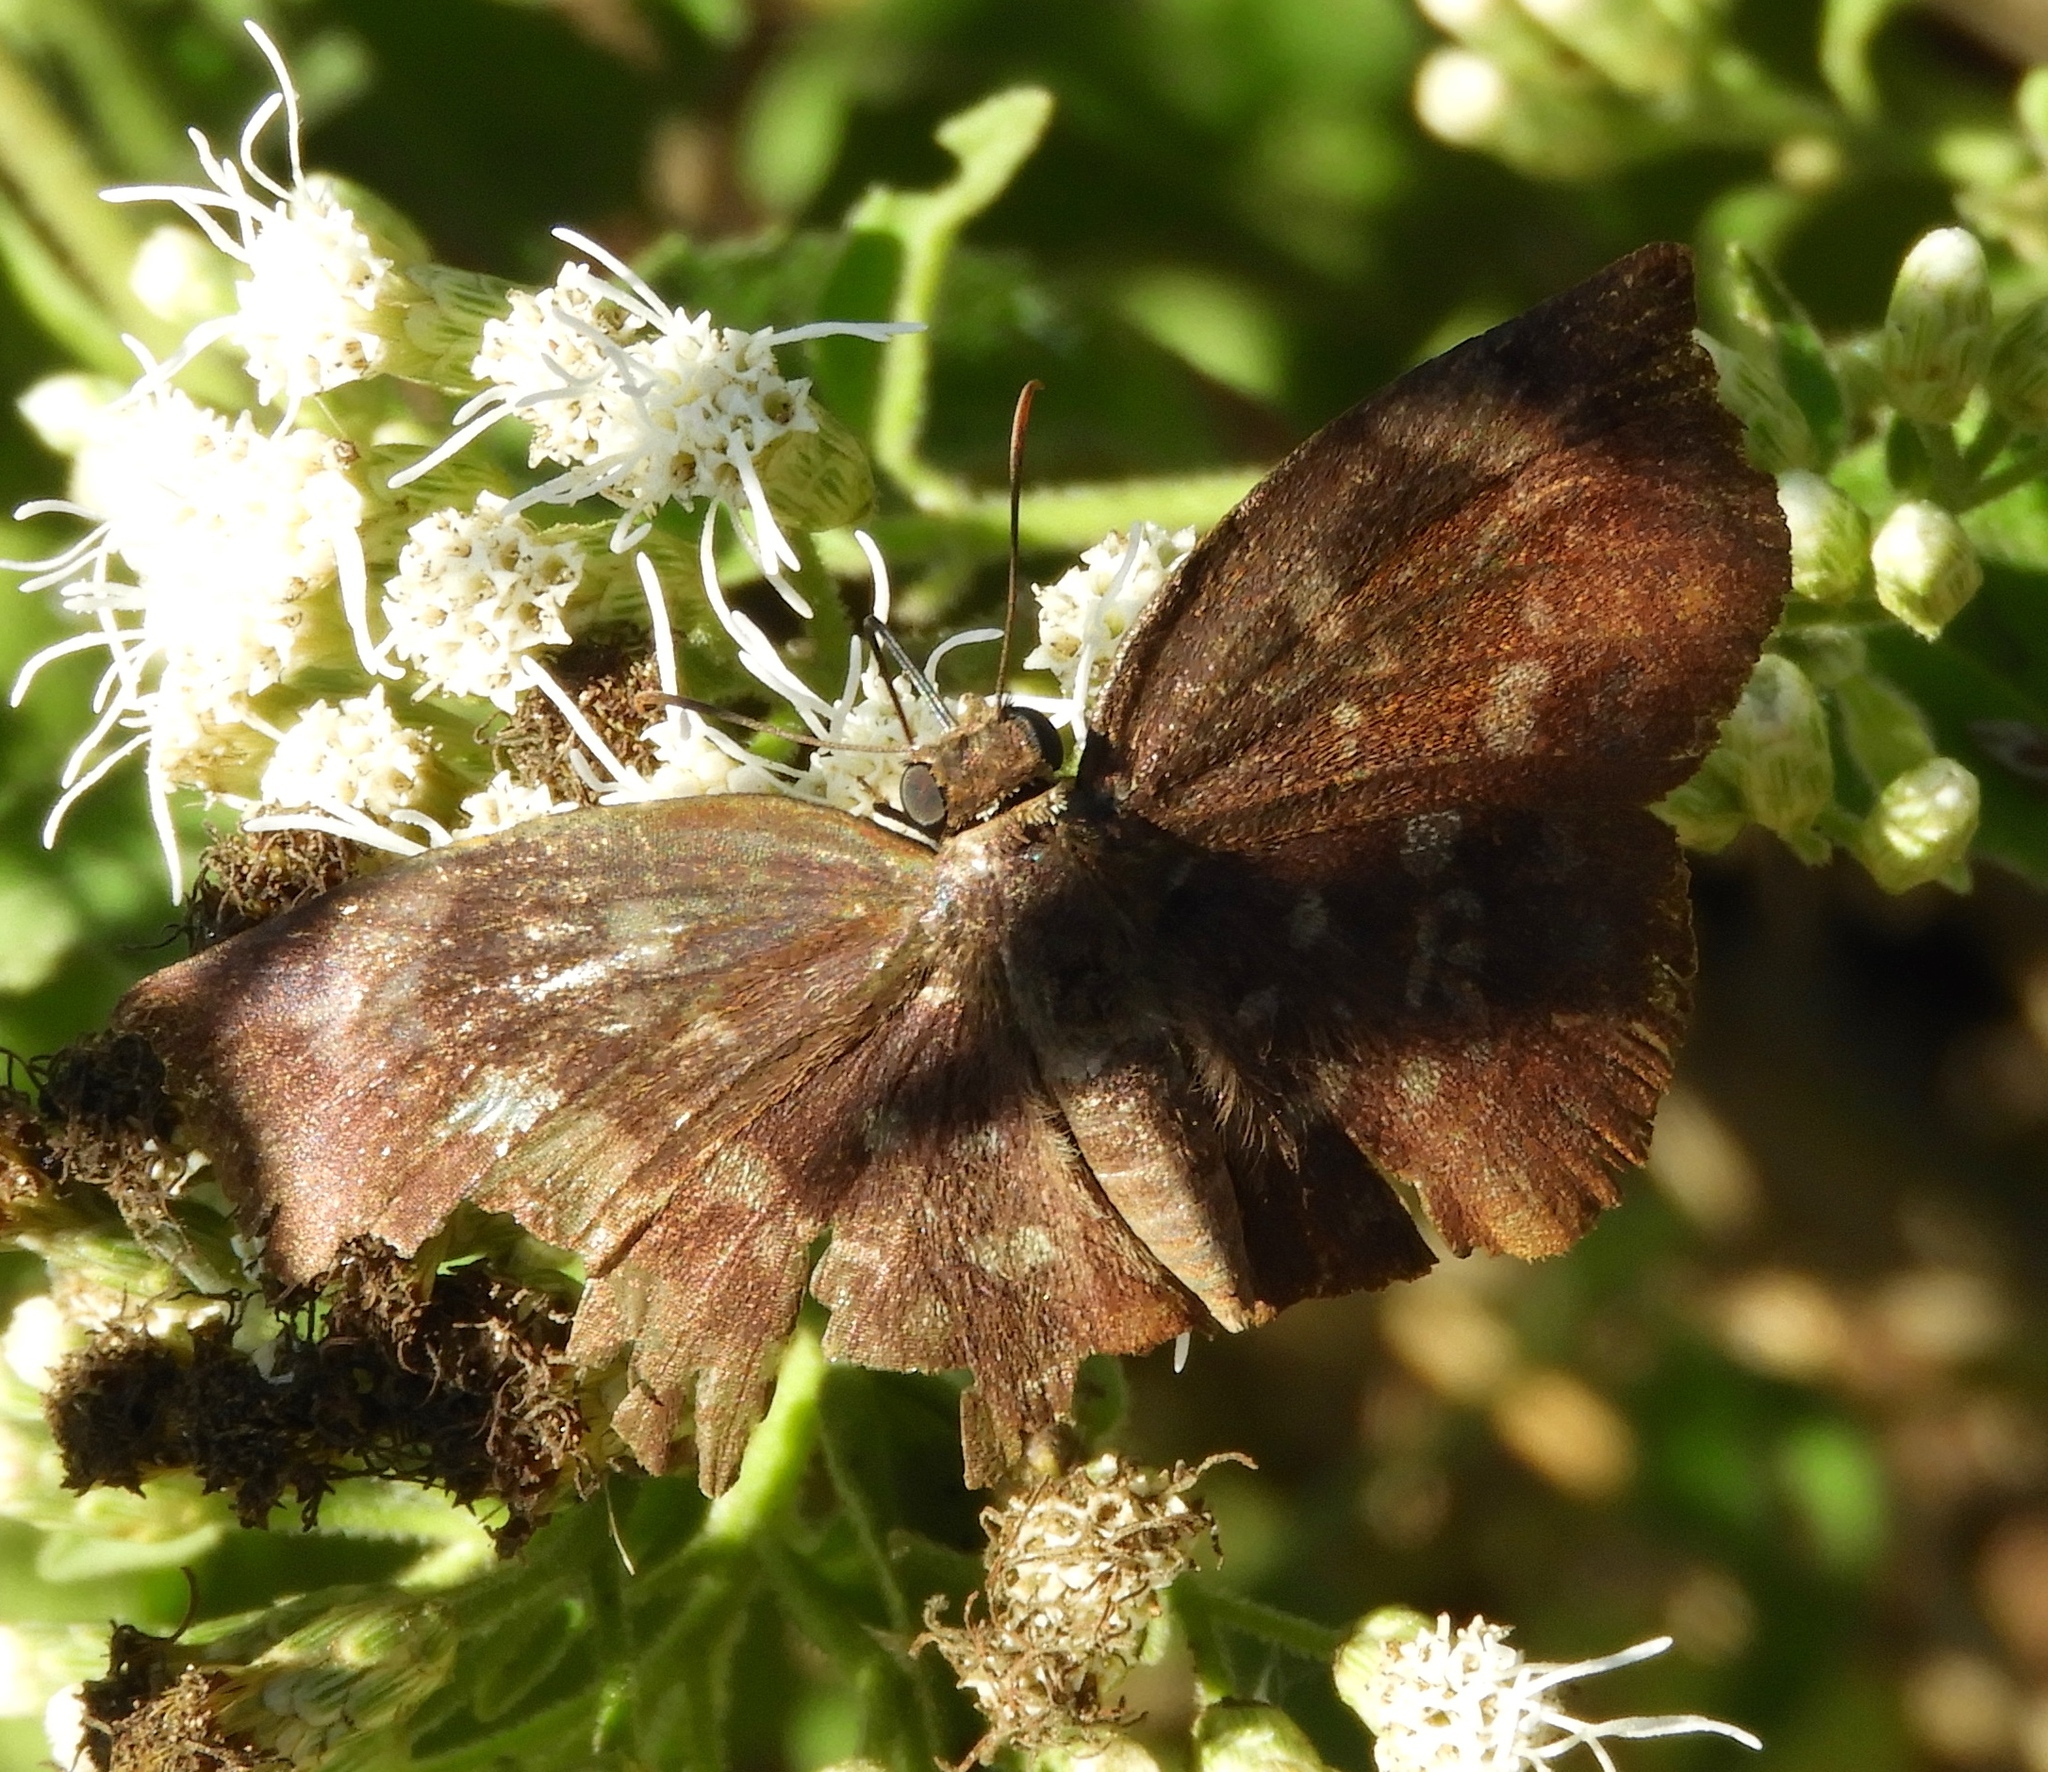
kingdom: Animalia
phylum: Arthropoda
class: Insecta
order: Lepidoptera
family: Hesperiidae
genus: Achlyodes
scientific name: Achlyodes thraso
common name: Sickle-winged skipper
